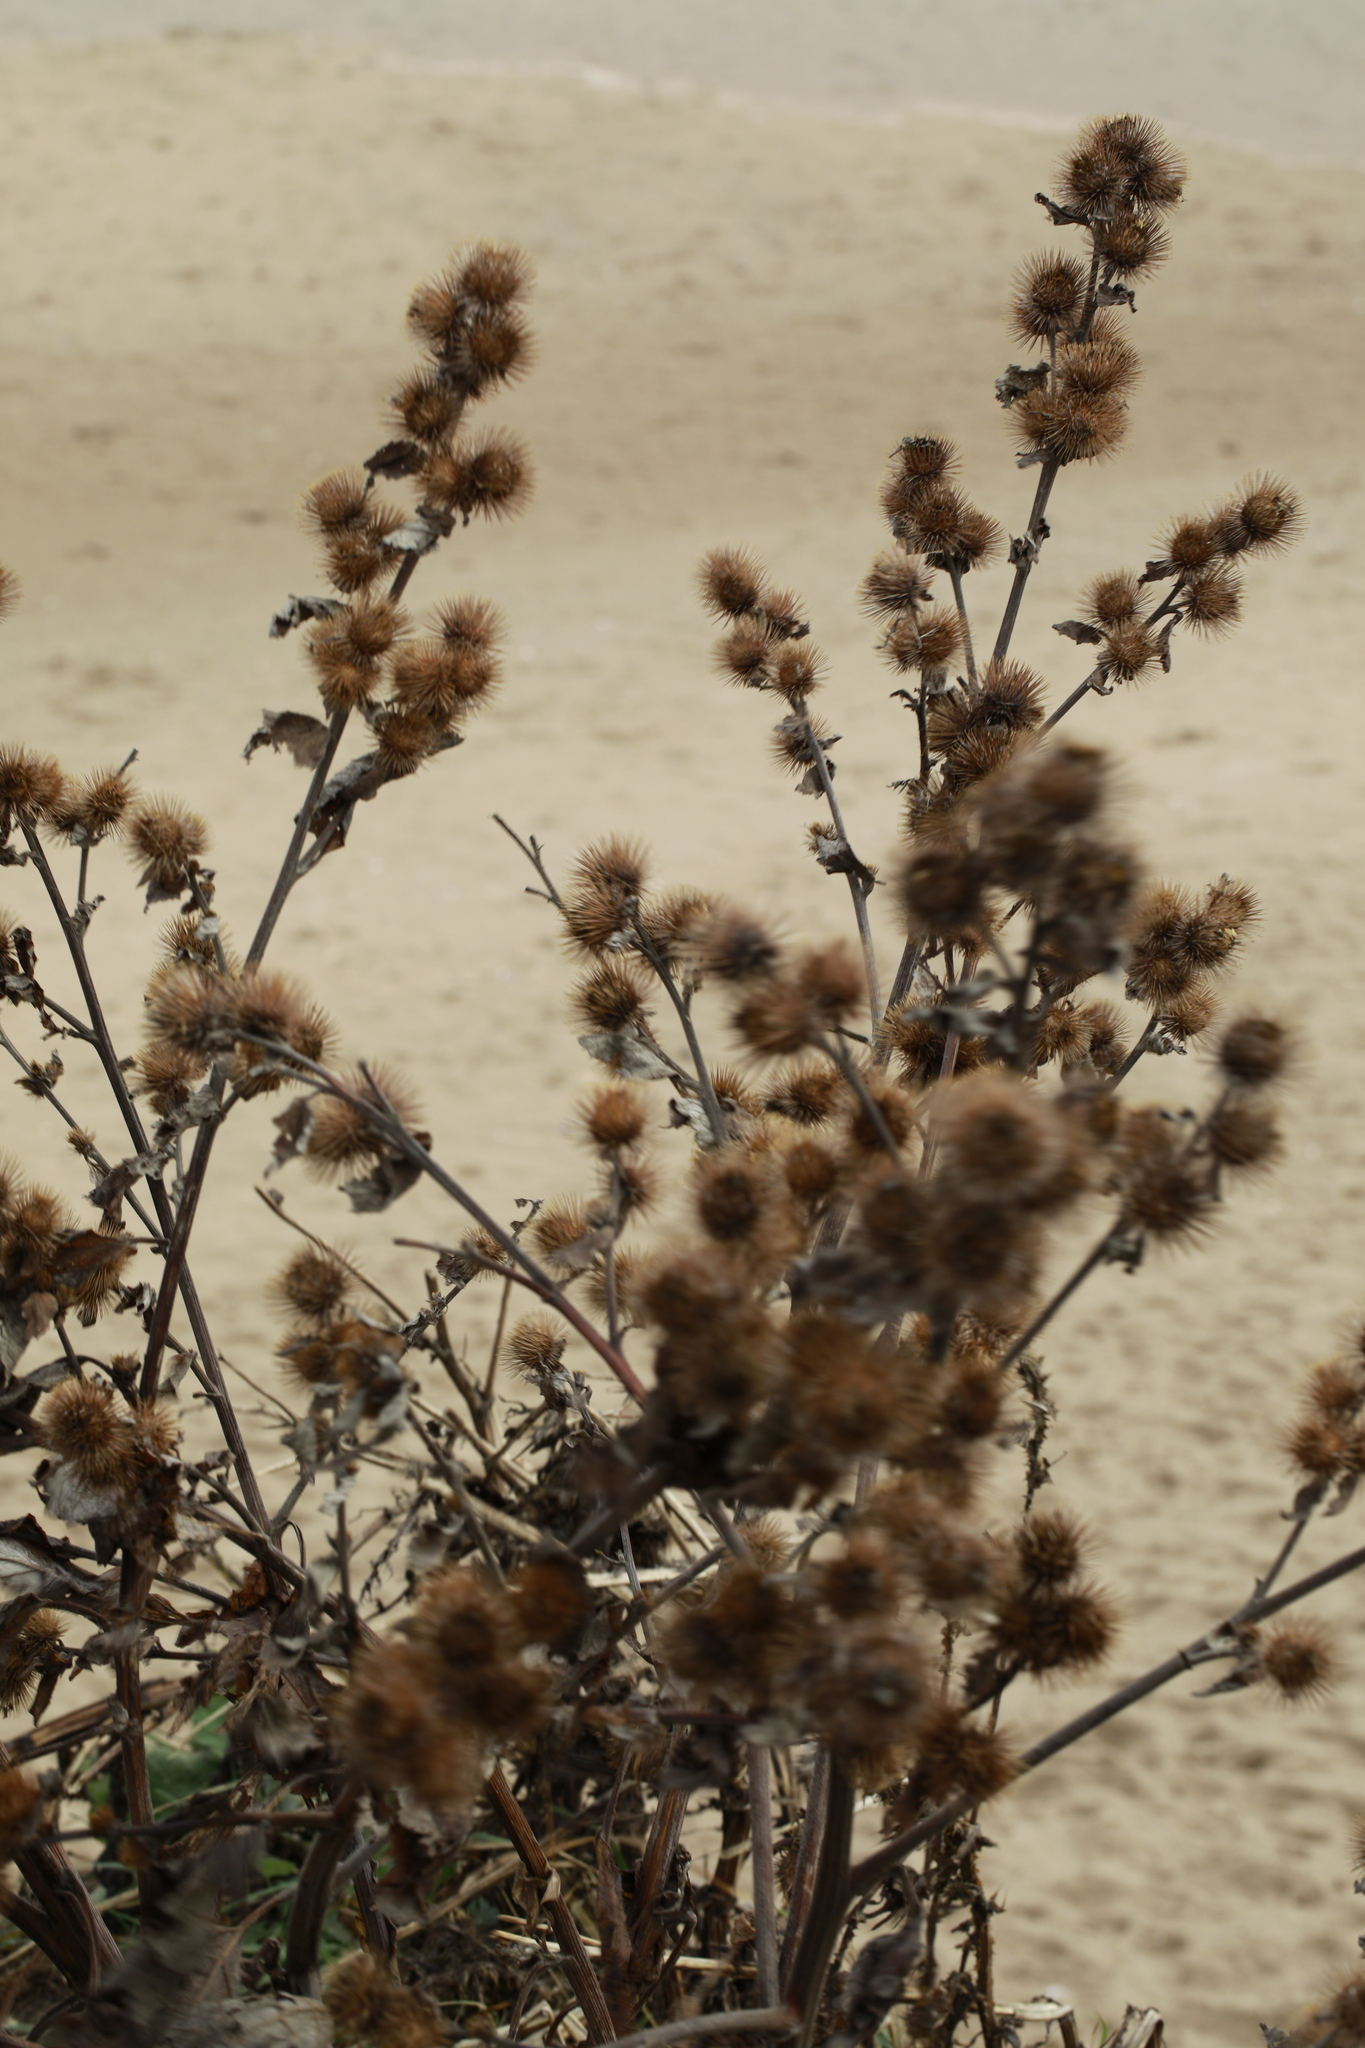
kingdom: Plantae
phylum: Tracheophyta
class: Magnoliopsida
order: Asterales
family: Asteraceae
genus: Arctium
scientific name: Arctium minus
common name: Lesser burdock
